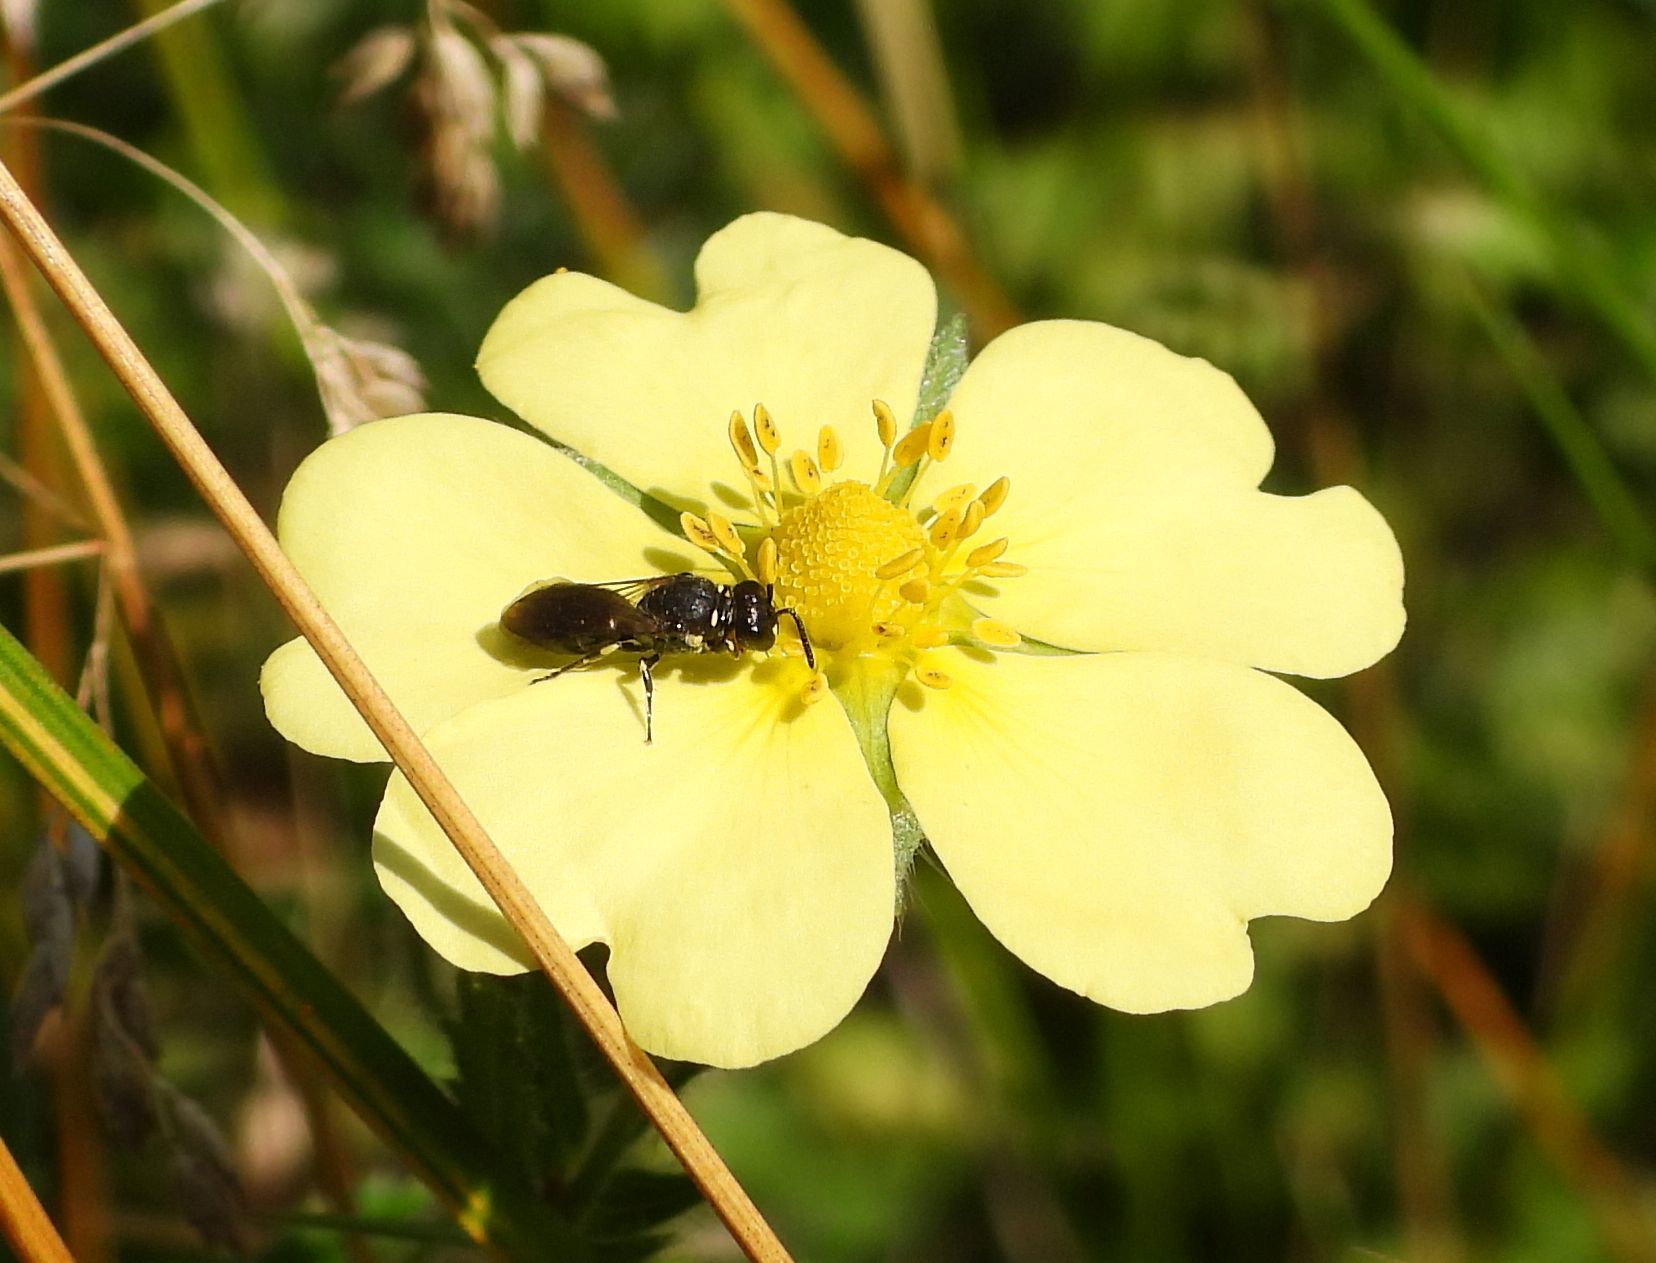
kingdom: Plantae
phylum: Tracheophyta
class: Magnoliopsida
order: Rosales
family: Rosaceae
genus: Potentilla
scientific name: Potentilla recta
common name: Sulphur cinquefoil
